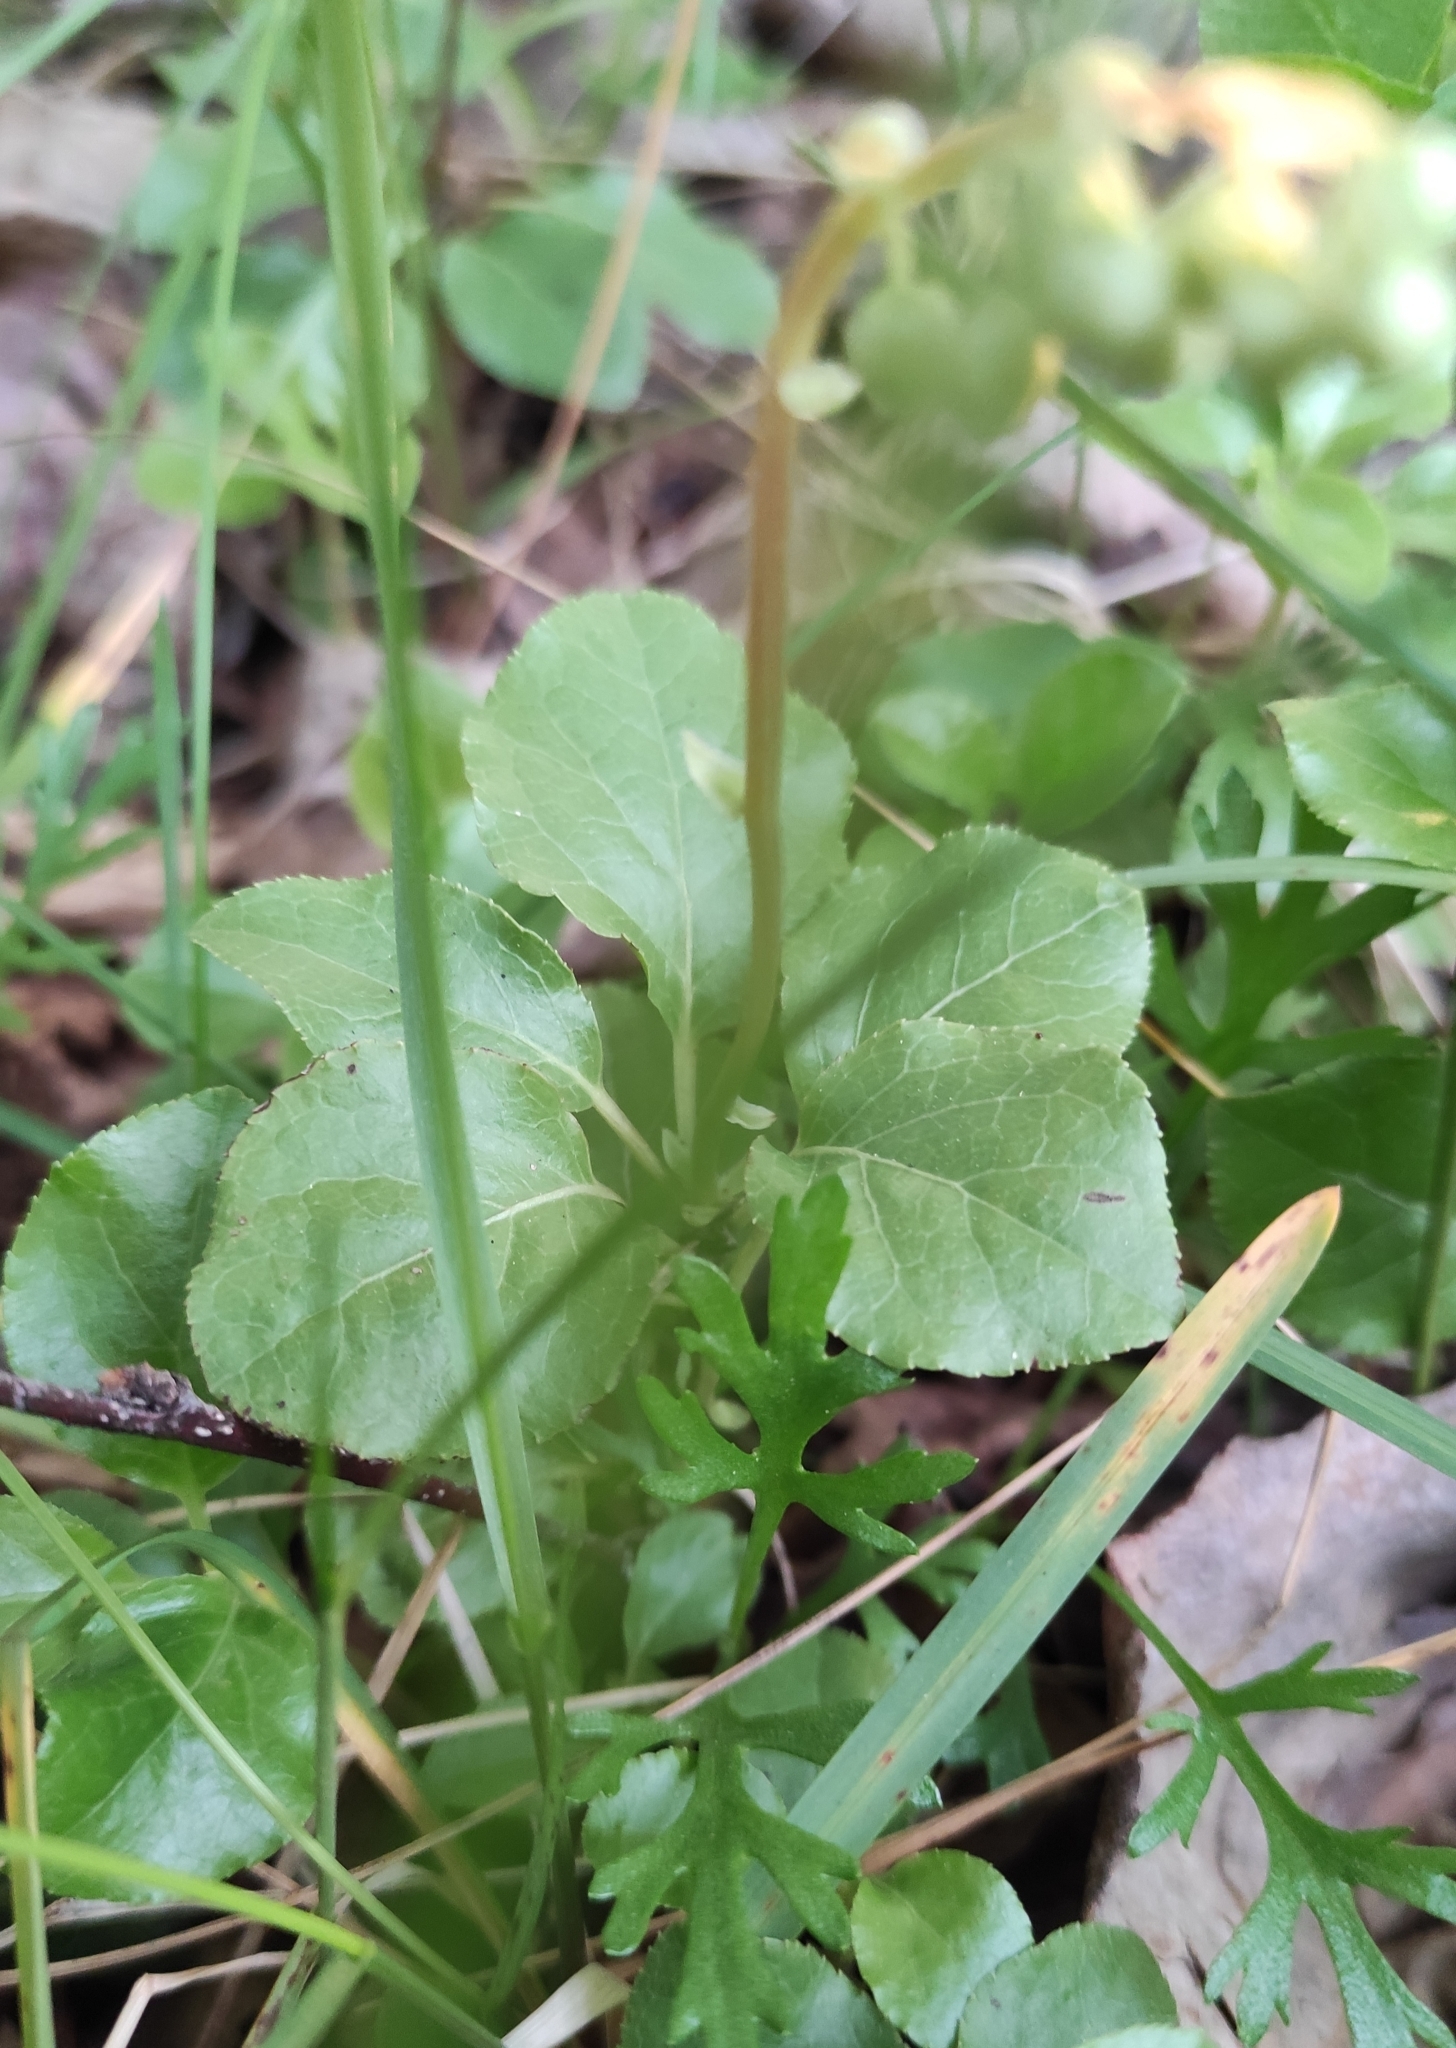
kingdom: Plantae
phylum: Tracheophyta
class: Magnoliopsida
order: Ericales
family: Ericaceae
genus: Orthilia
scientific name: Orthilia secunda
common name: One-sided orthilia
